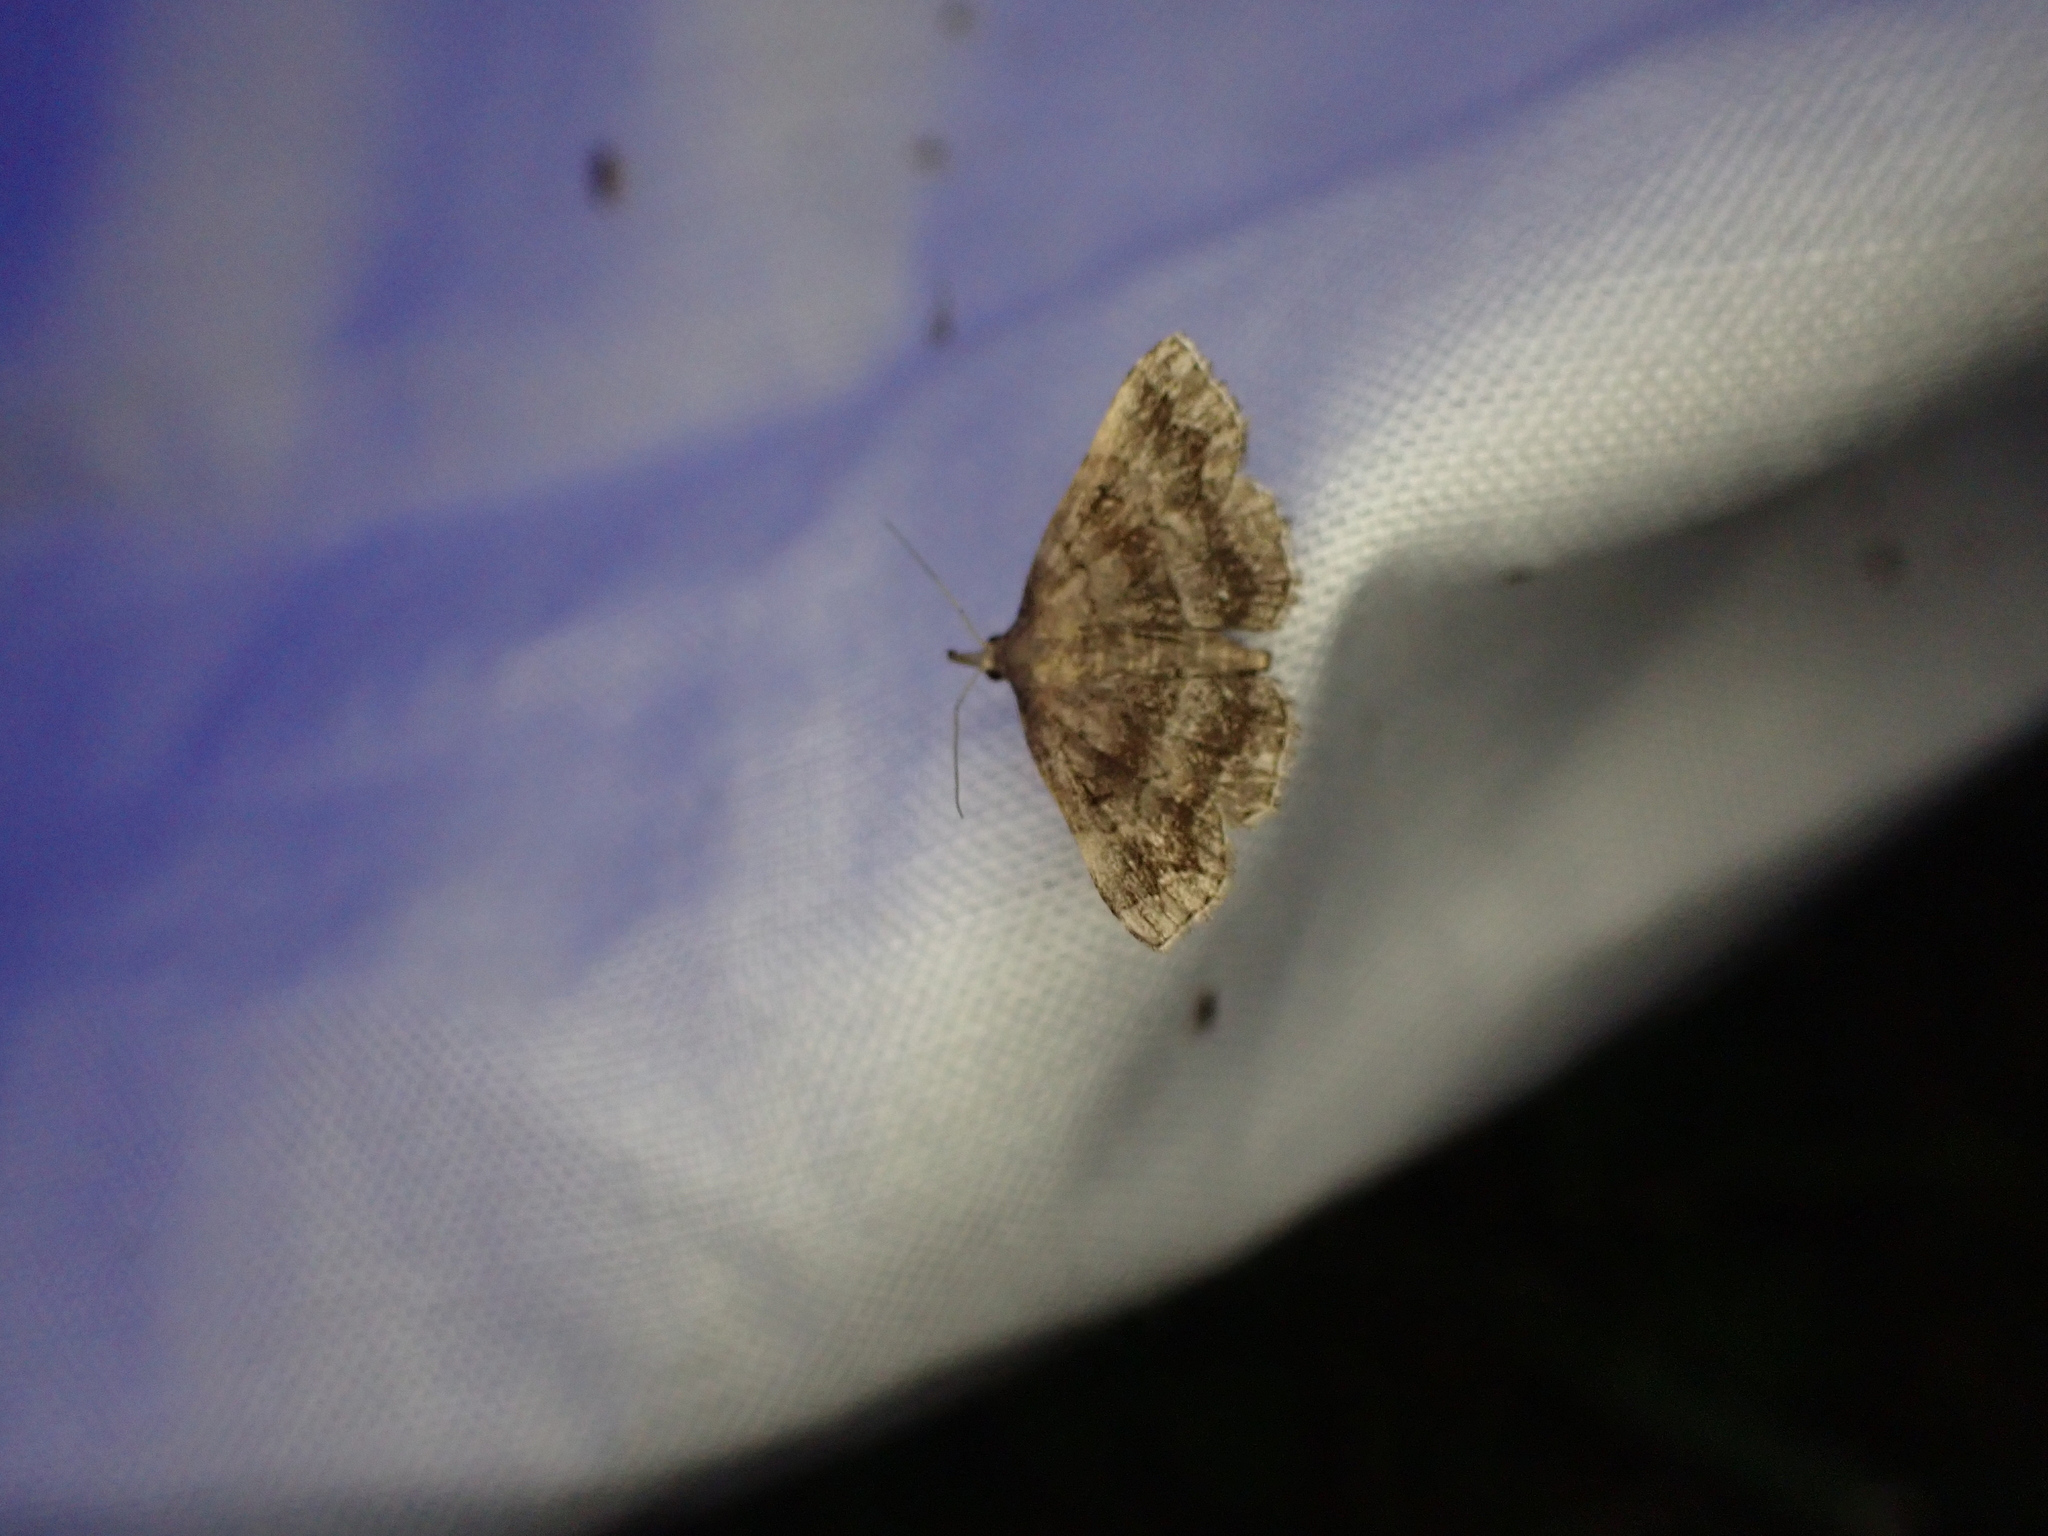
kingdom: Animalia
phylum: Arthropoda
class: Insecta
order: Lepidoptera
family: Erebidae
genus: Phalaenostola
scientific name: Phalaenostola larentioides
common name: Black-banded owlet
